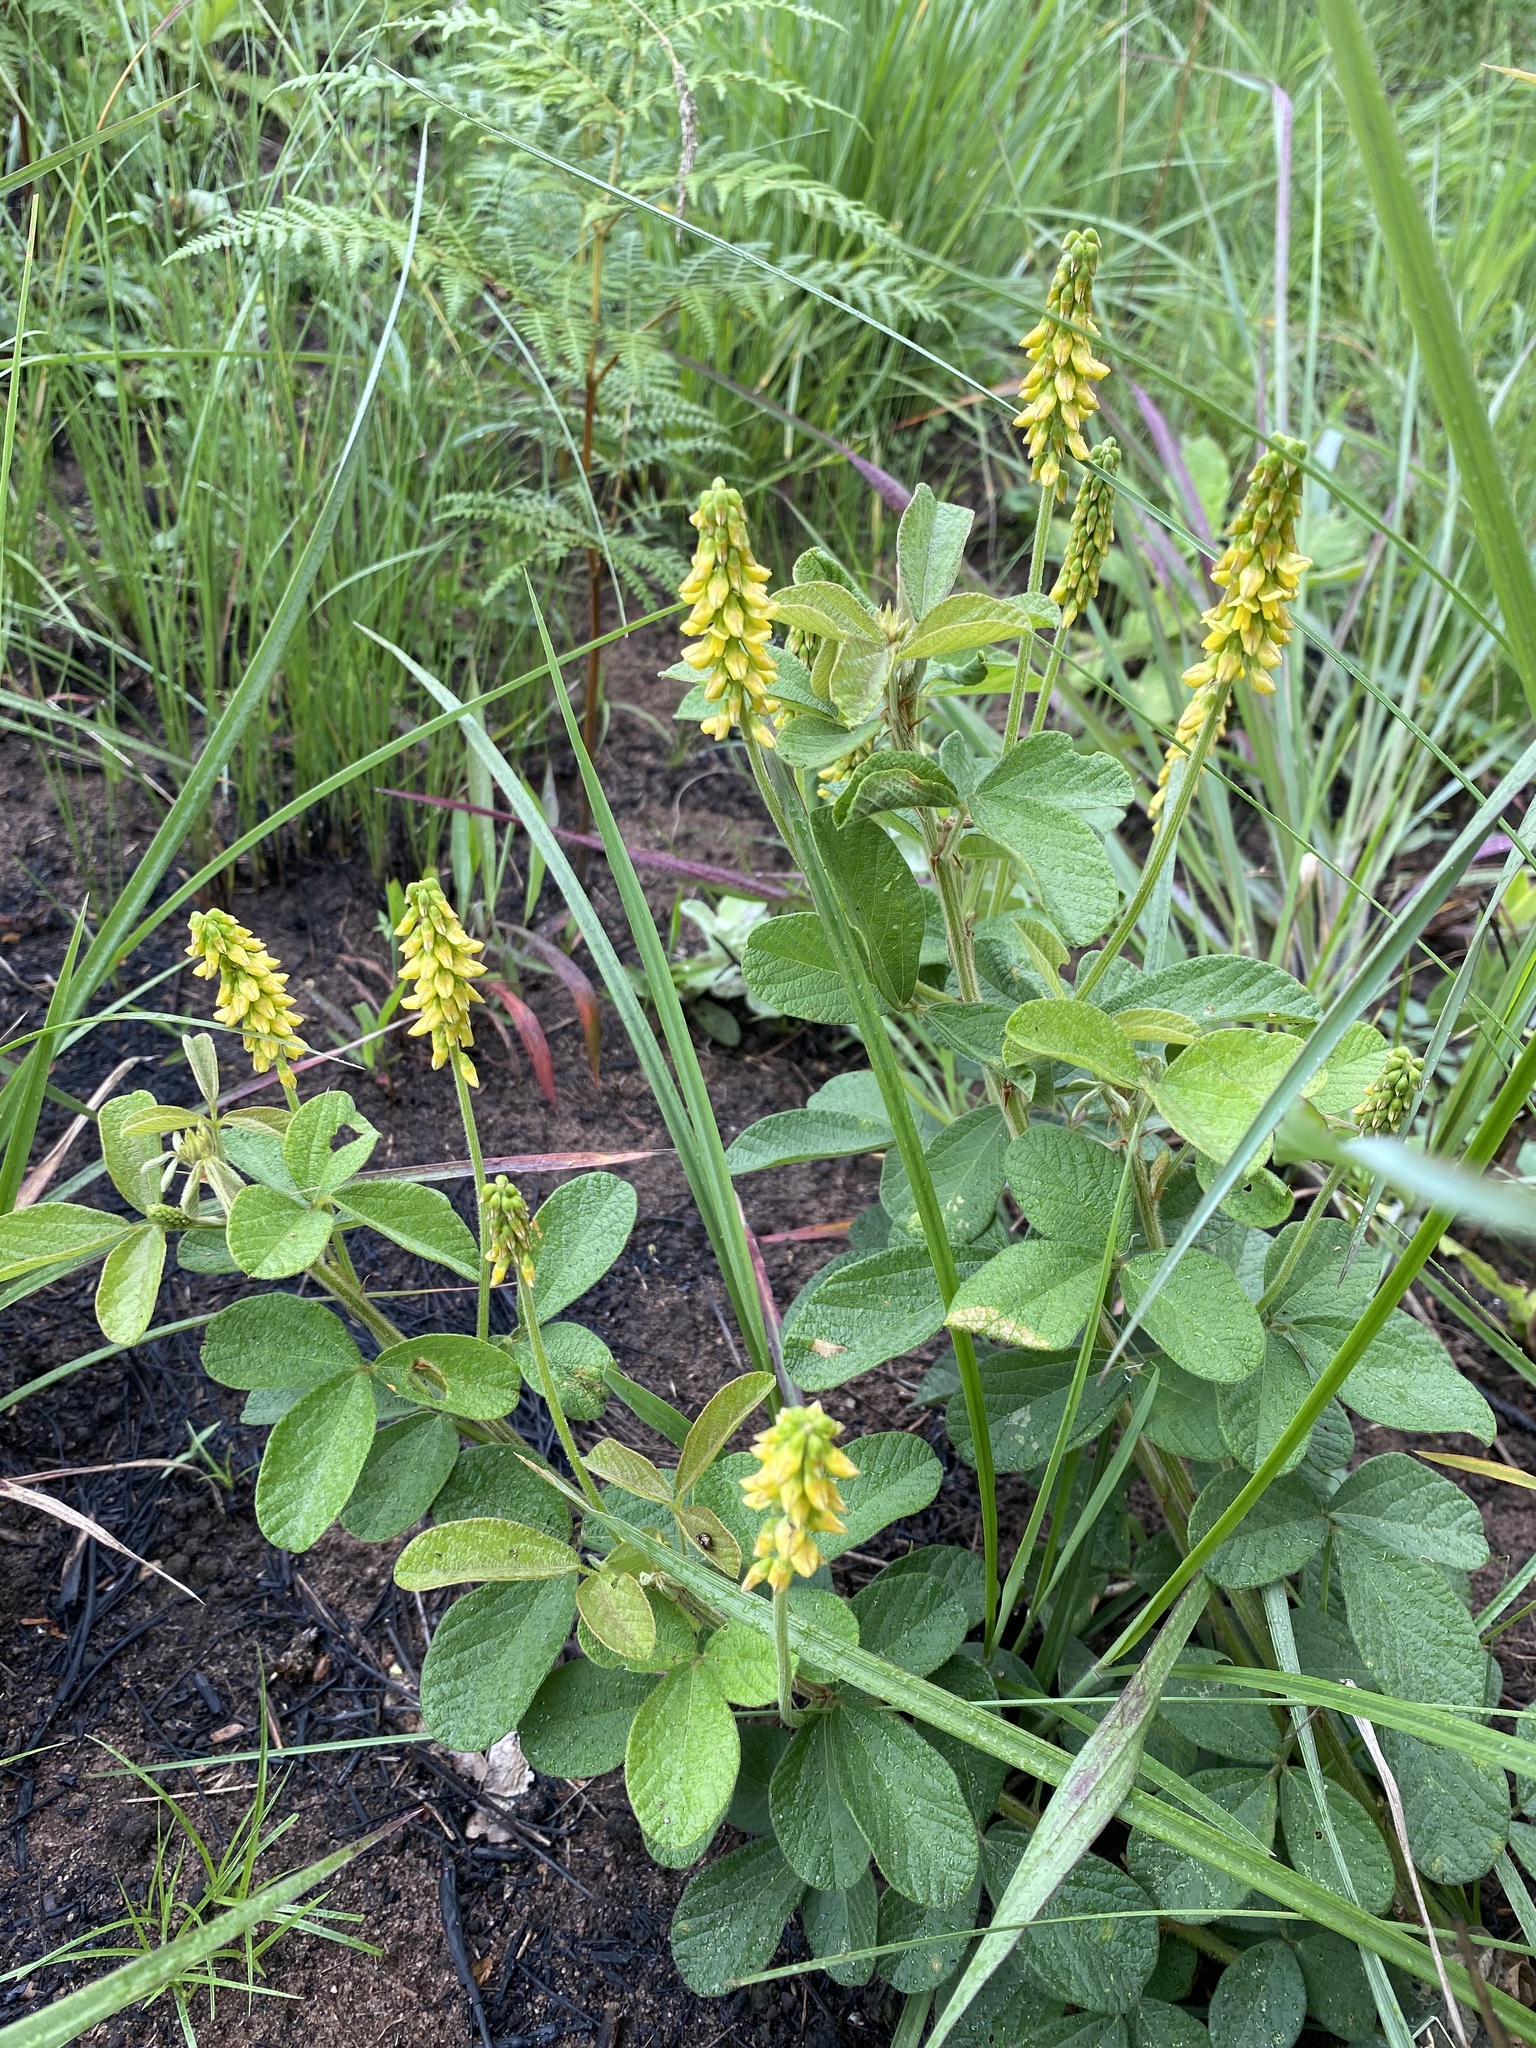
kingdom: Plantae
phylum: Tracheophyta
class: Magnoliopsida
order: Fabales
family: Fabaceae
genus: Eriosema
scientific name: Eriosema parviflorum
